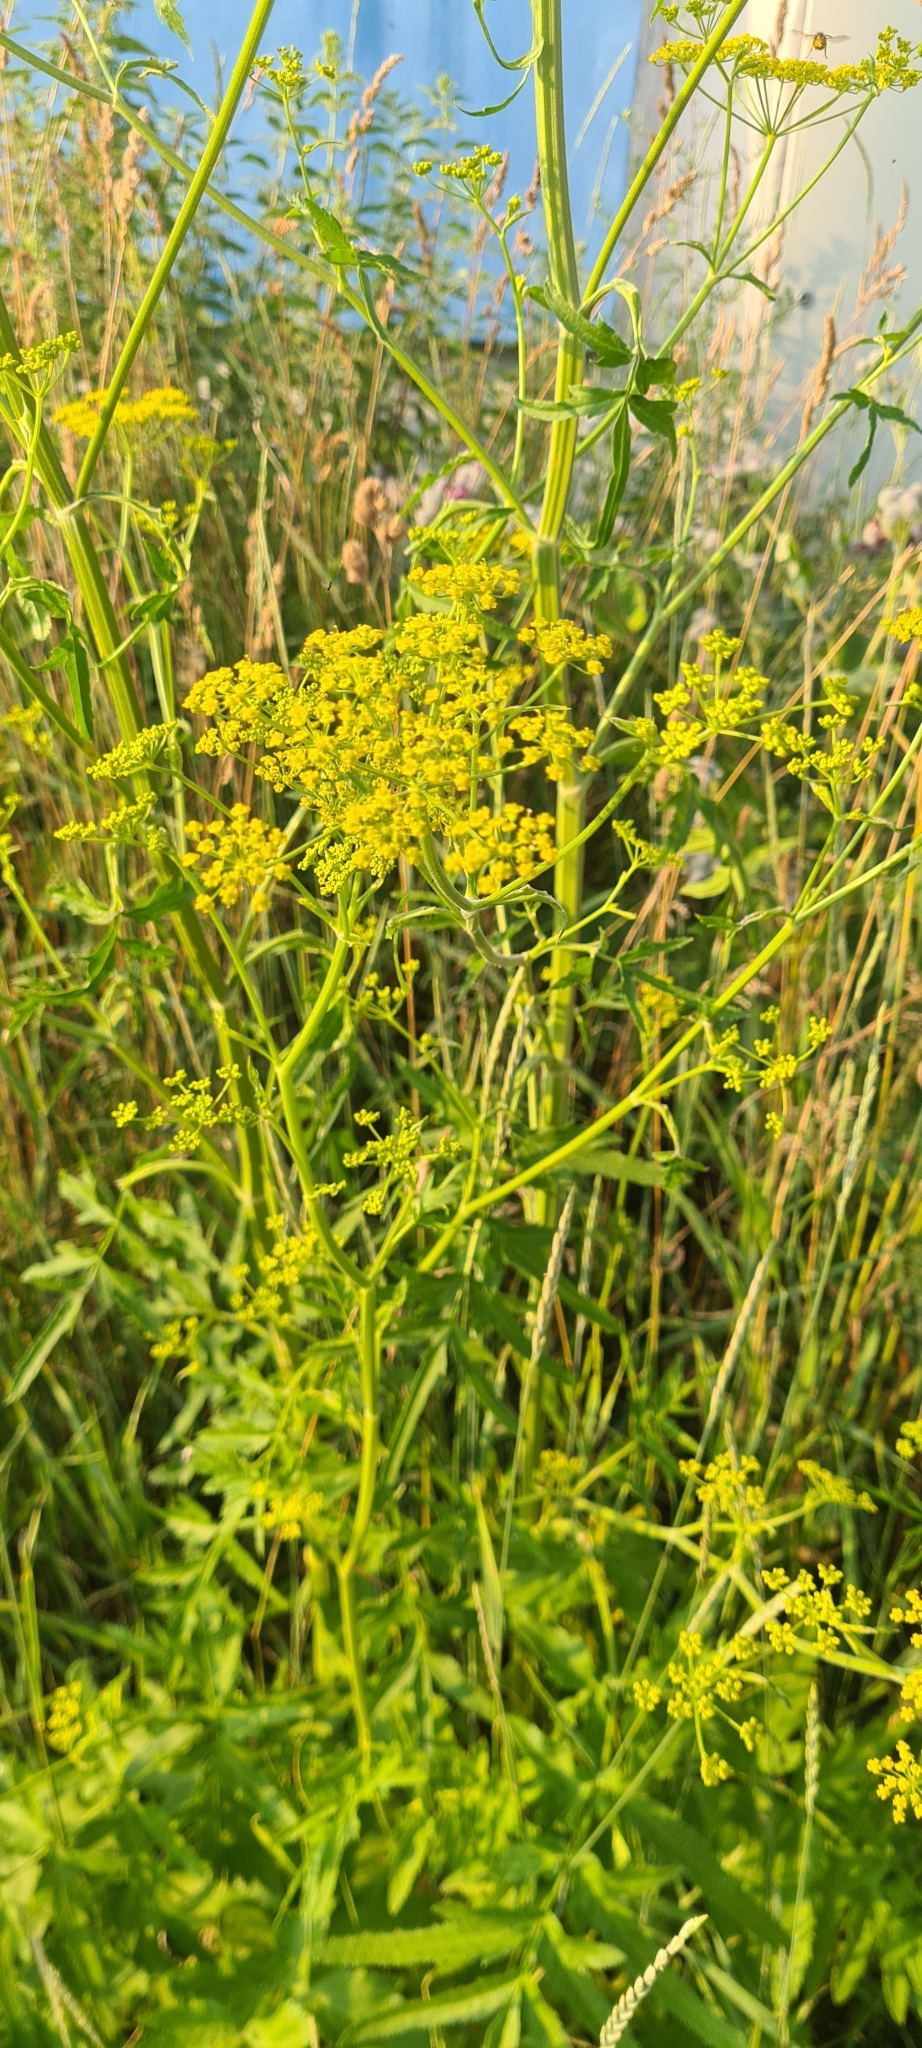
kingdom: Plantae
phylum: Tracheophyta
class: Magnoliopsida
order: Apiales
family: Apiaceae
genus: Pastinaca
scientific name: Pastinaca sativa
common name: Wild parsnip
